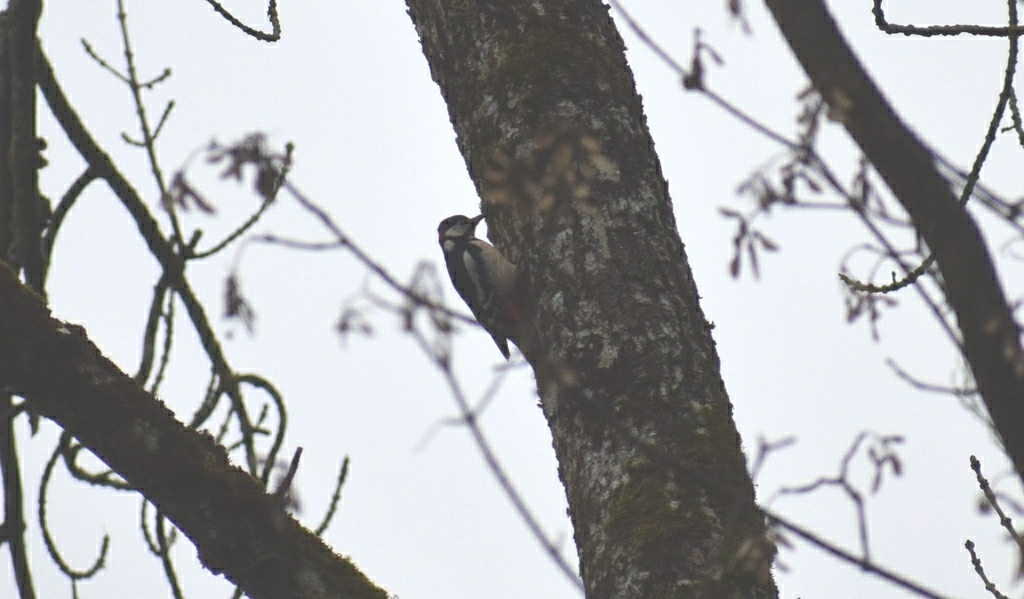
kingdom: Animalia
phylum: Chordata
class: Aves
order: Piciformes
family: Picidae
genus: Dendrocopos
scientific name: Dendrocopos major
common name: Great spotted woodpecker
